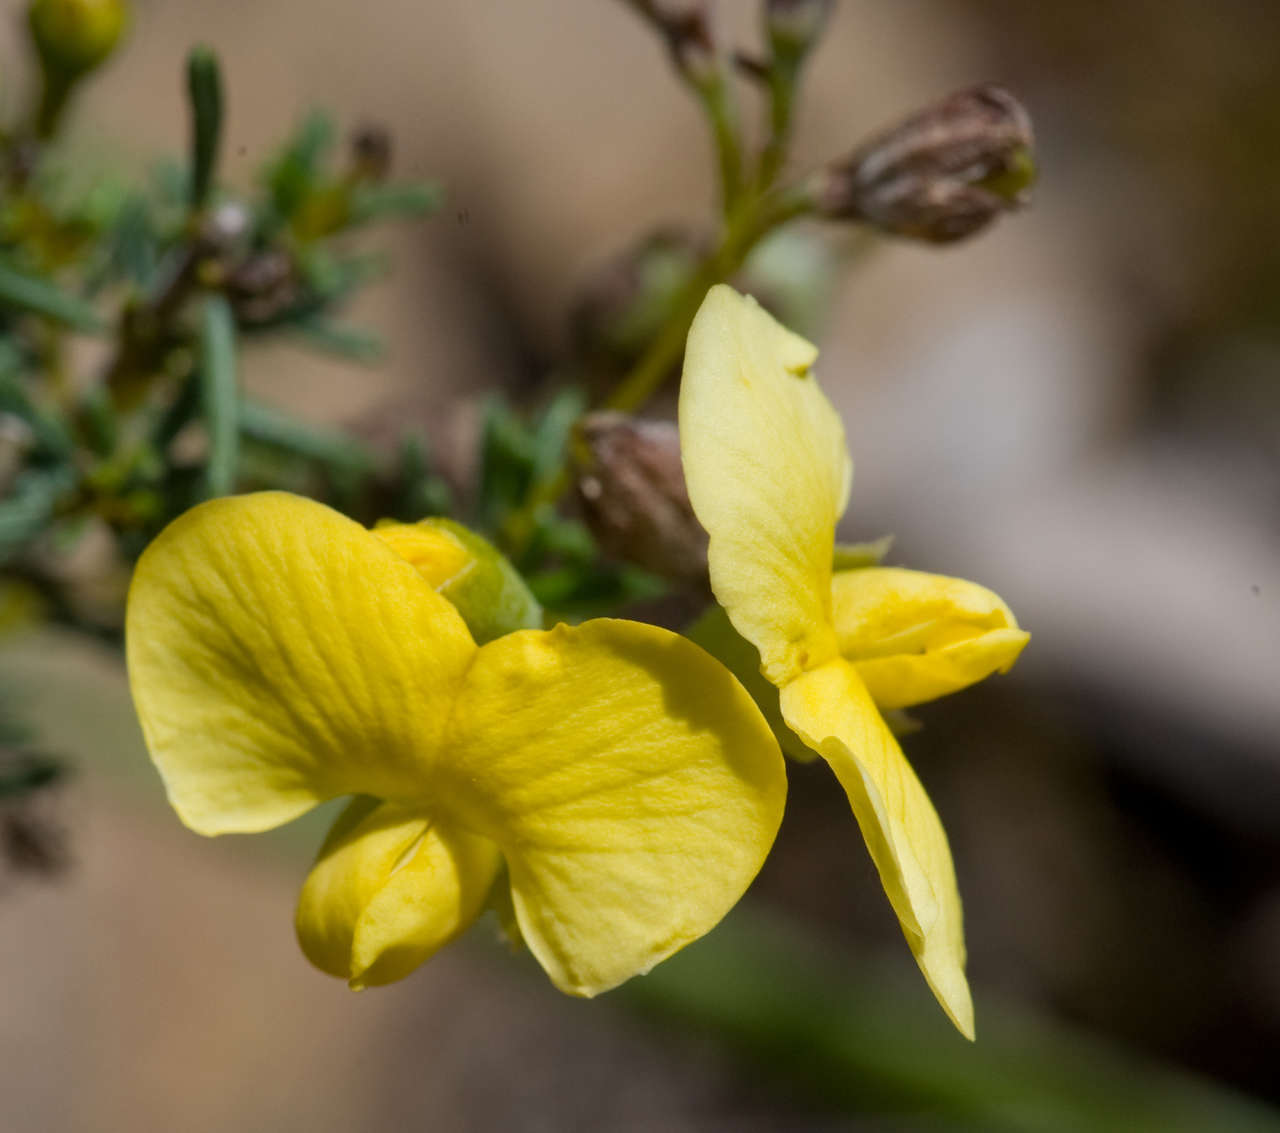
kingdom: Plantae
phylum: Tracheophyta
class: Magnoliopsida
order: Fabales
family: Fabaceae
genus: Gompholobium
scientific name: Gompholobium huegelii
